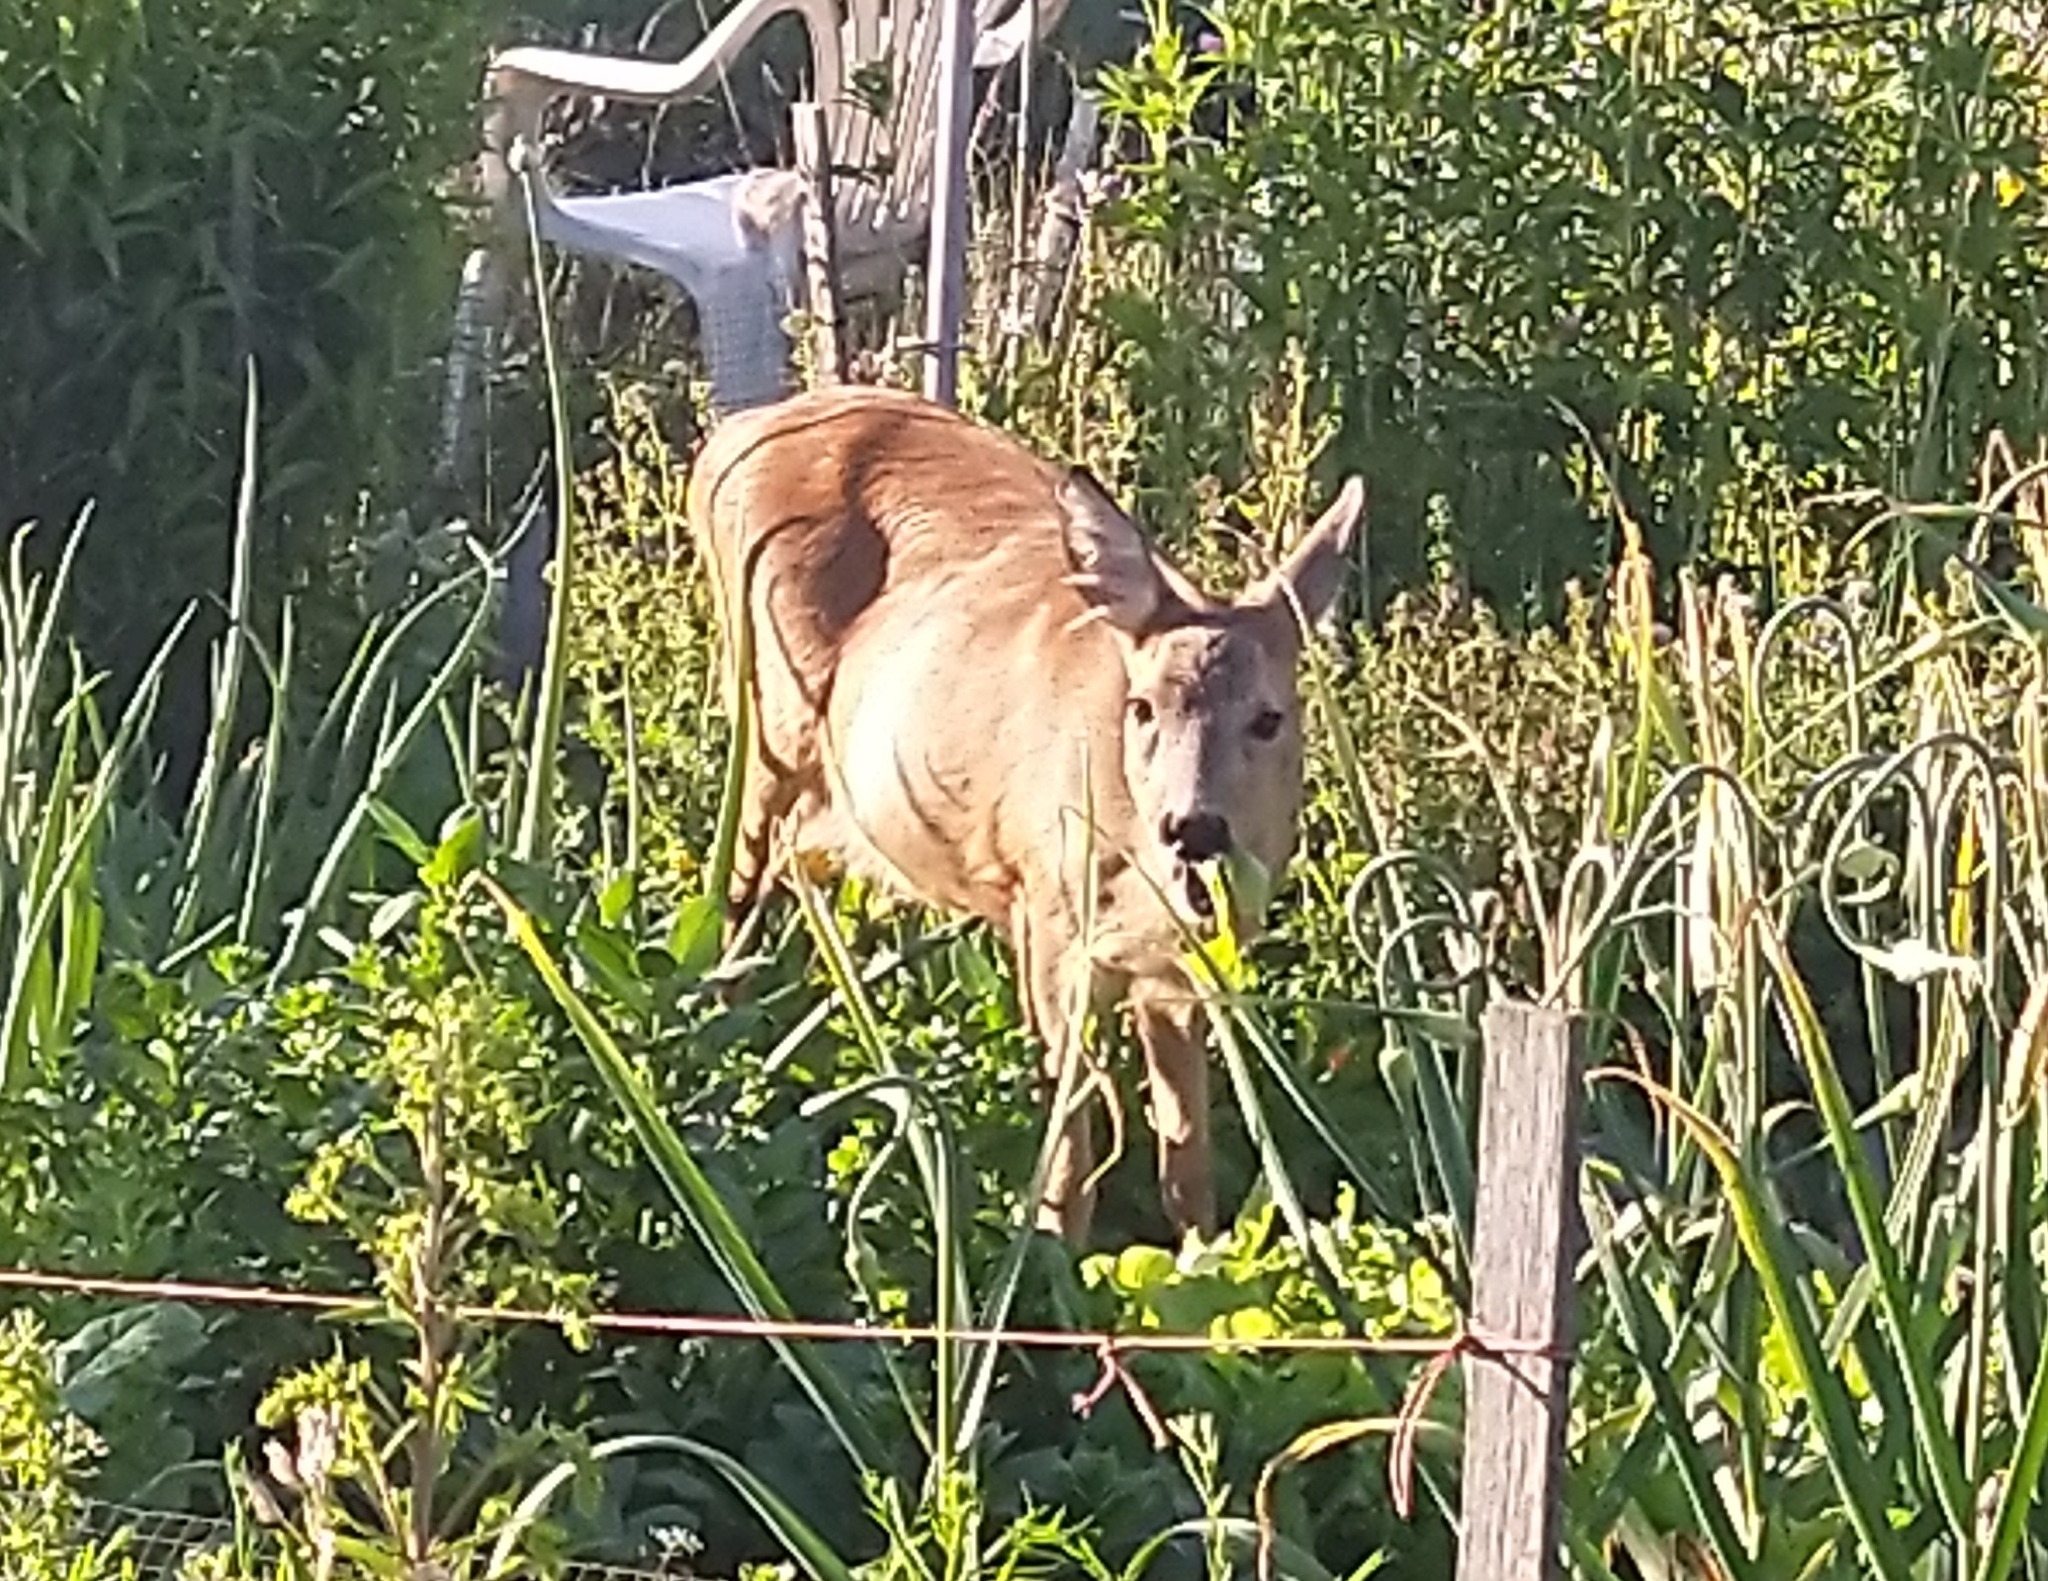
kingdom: Animalia
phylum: Chordata
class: Mammalia
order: Artiodactyla
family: Cervidae
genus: Capreolus
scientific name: Capreolus capreolus
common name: Western roe deer
